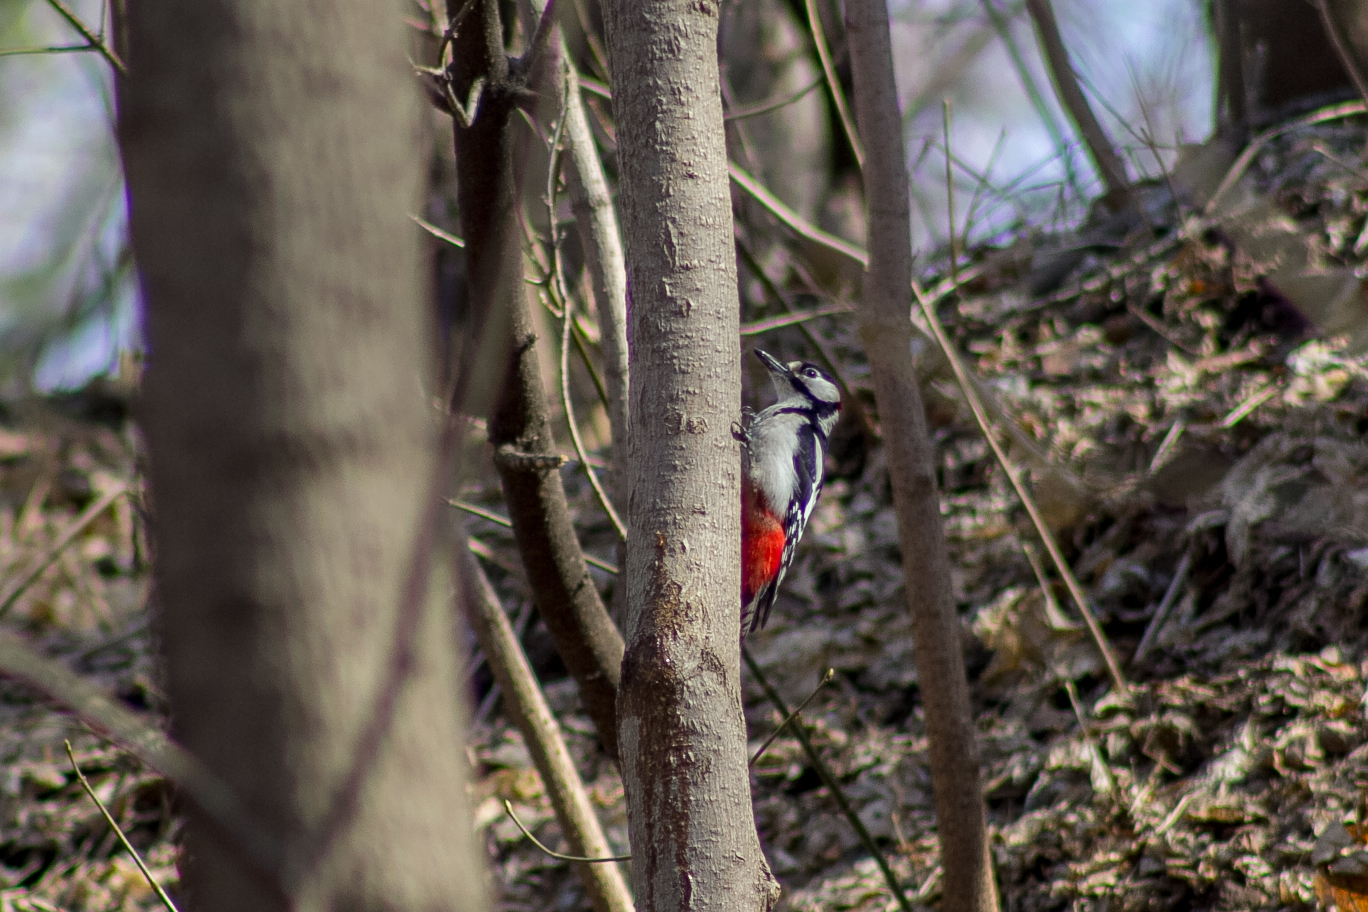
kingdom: Animalia
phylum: Chordata
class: Aves
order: Piciformes
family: Picidae
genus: Dendrocopos
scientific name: Dendrocopos major
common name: Great spotted woodpecker
